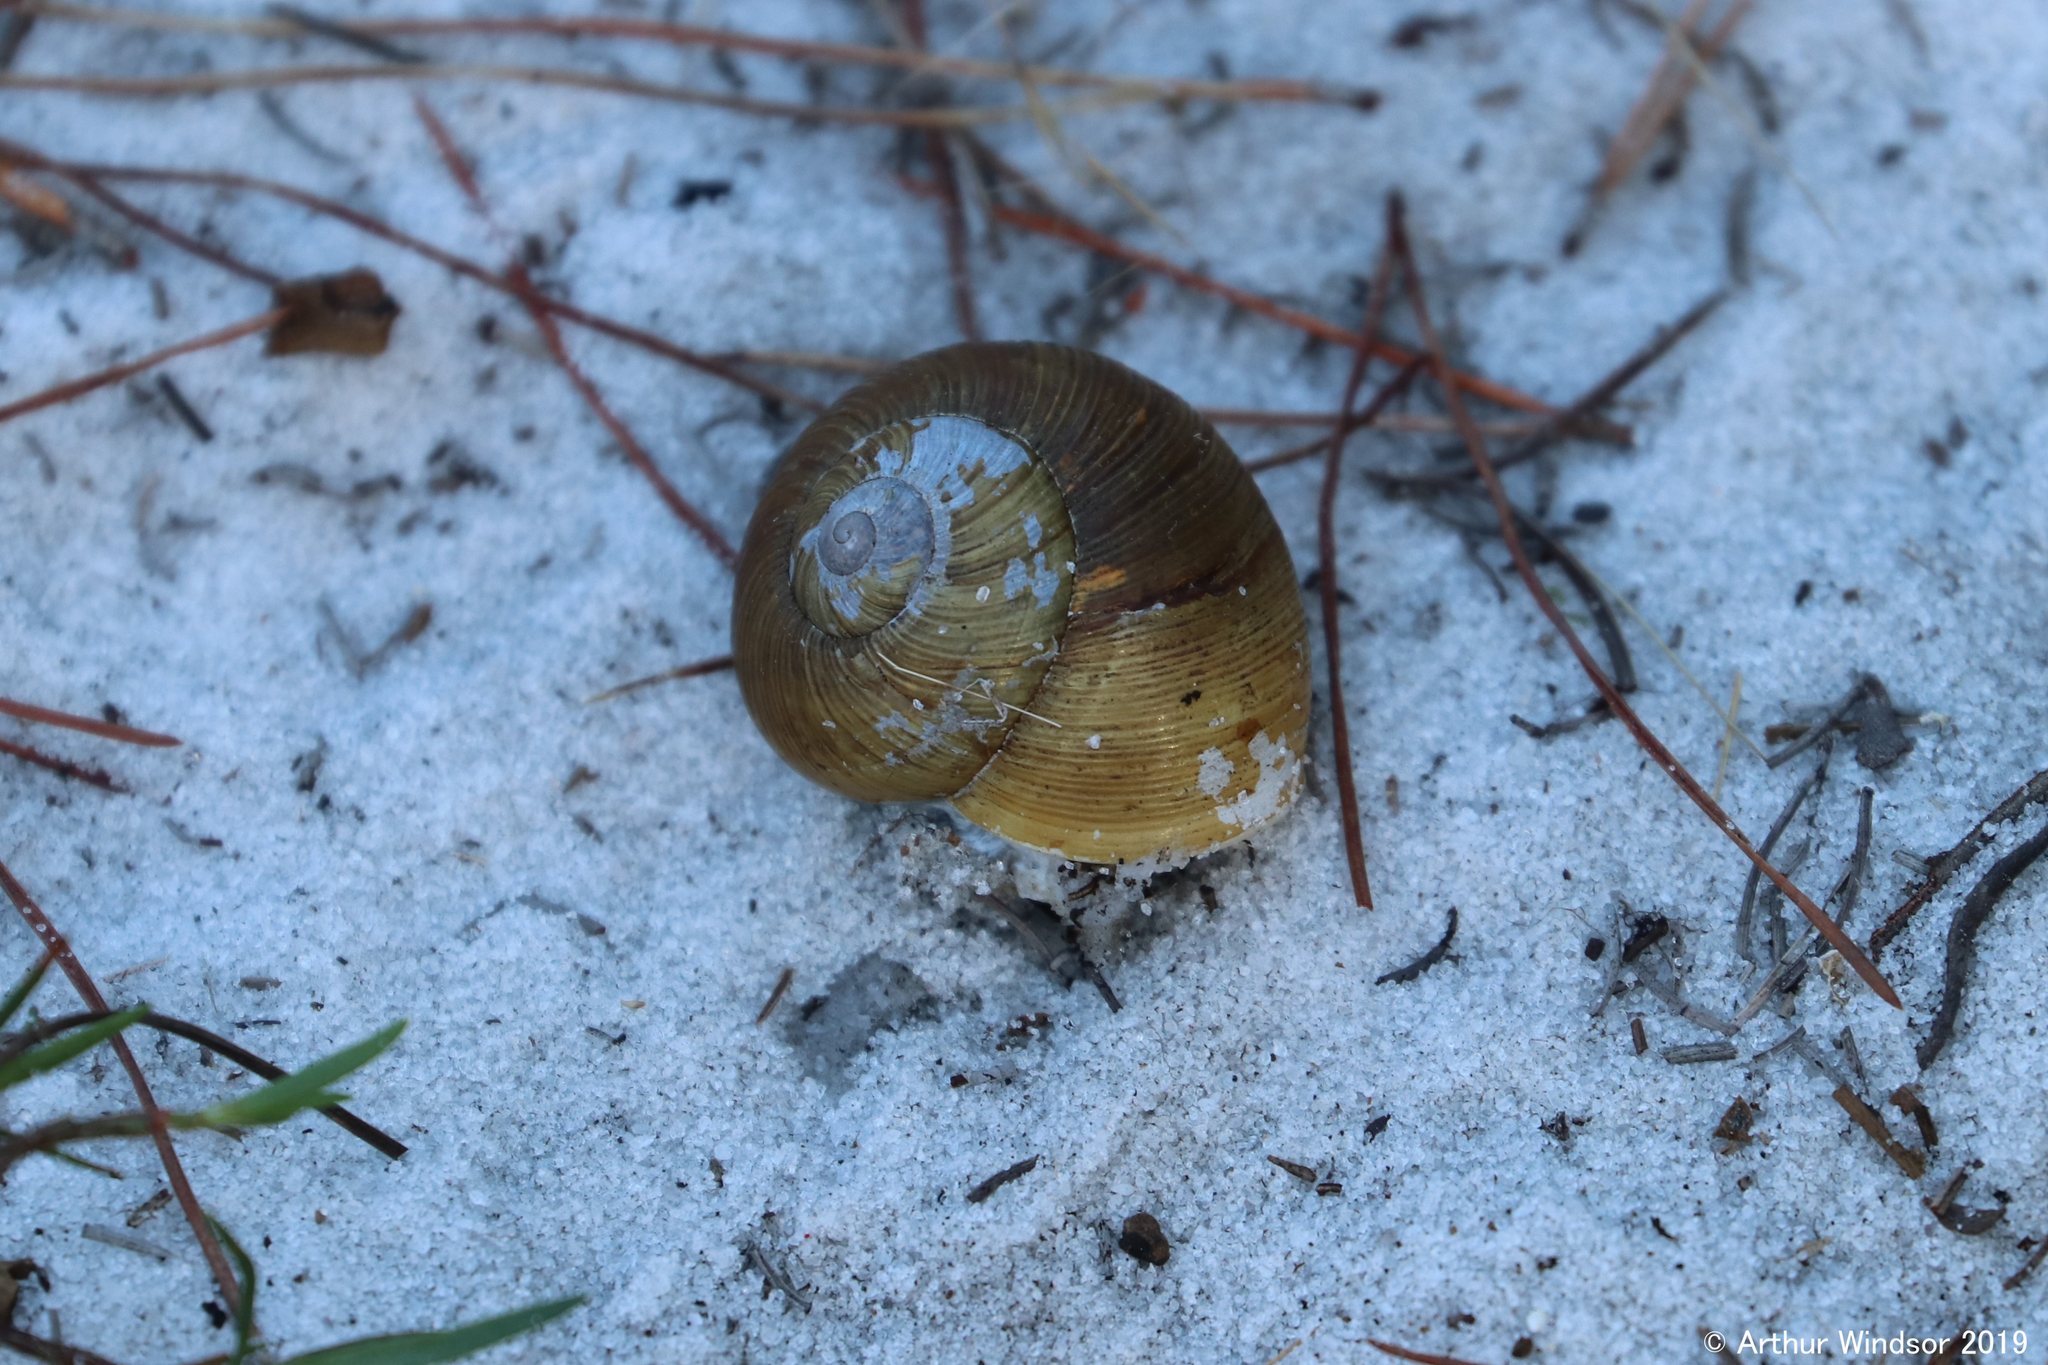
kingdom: Animalia
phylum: Mollusca
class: Gastropoda
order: Stylommatophora
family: Zachrysiidae
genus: Zachrysia
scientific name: Zachrysia provisoria
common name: Garden zachrysia
